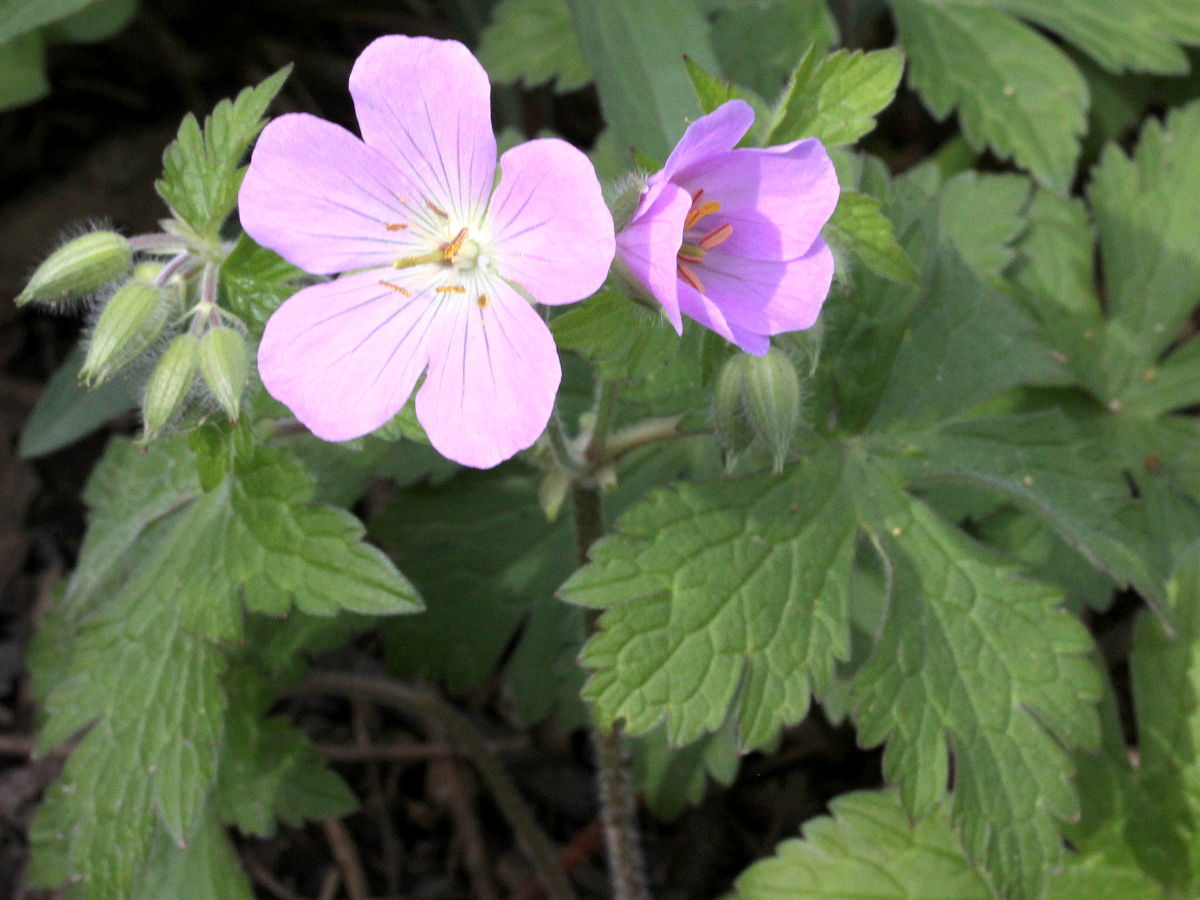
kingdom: Plantae
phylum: Tracheophyta
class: Magnoliopsida
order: Geraniales
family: Geraniaceae
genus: Geranium
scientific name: Geranium maculatum
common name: Spotted geranium
